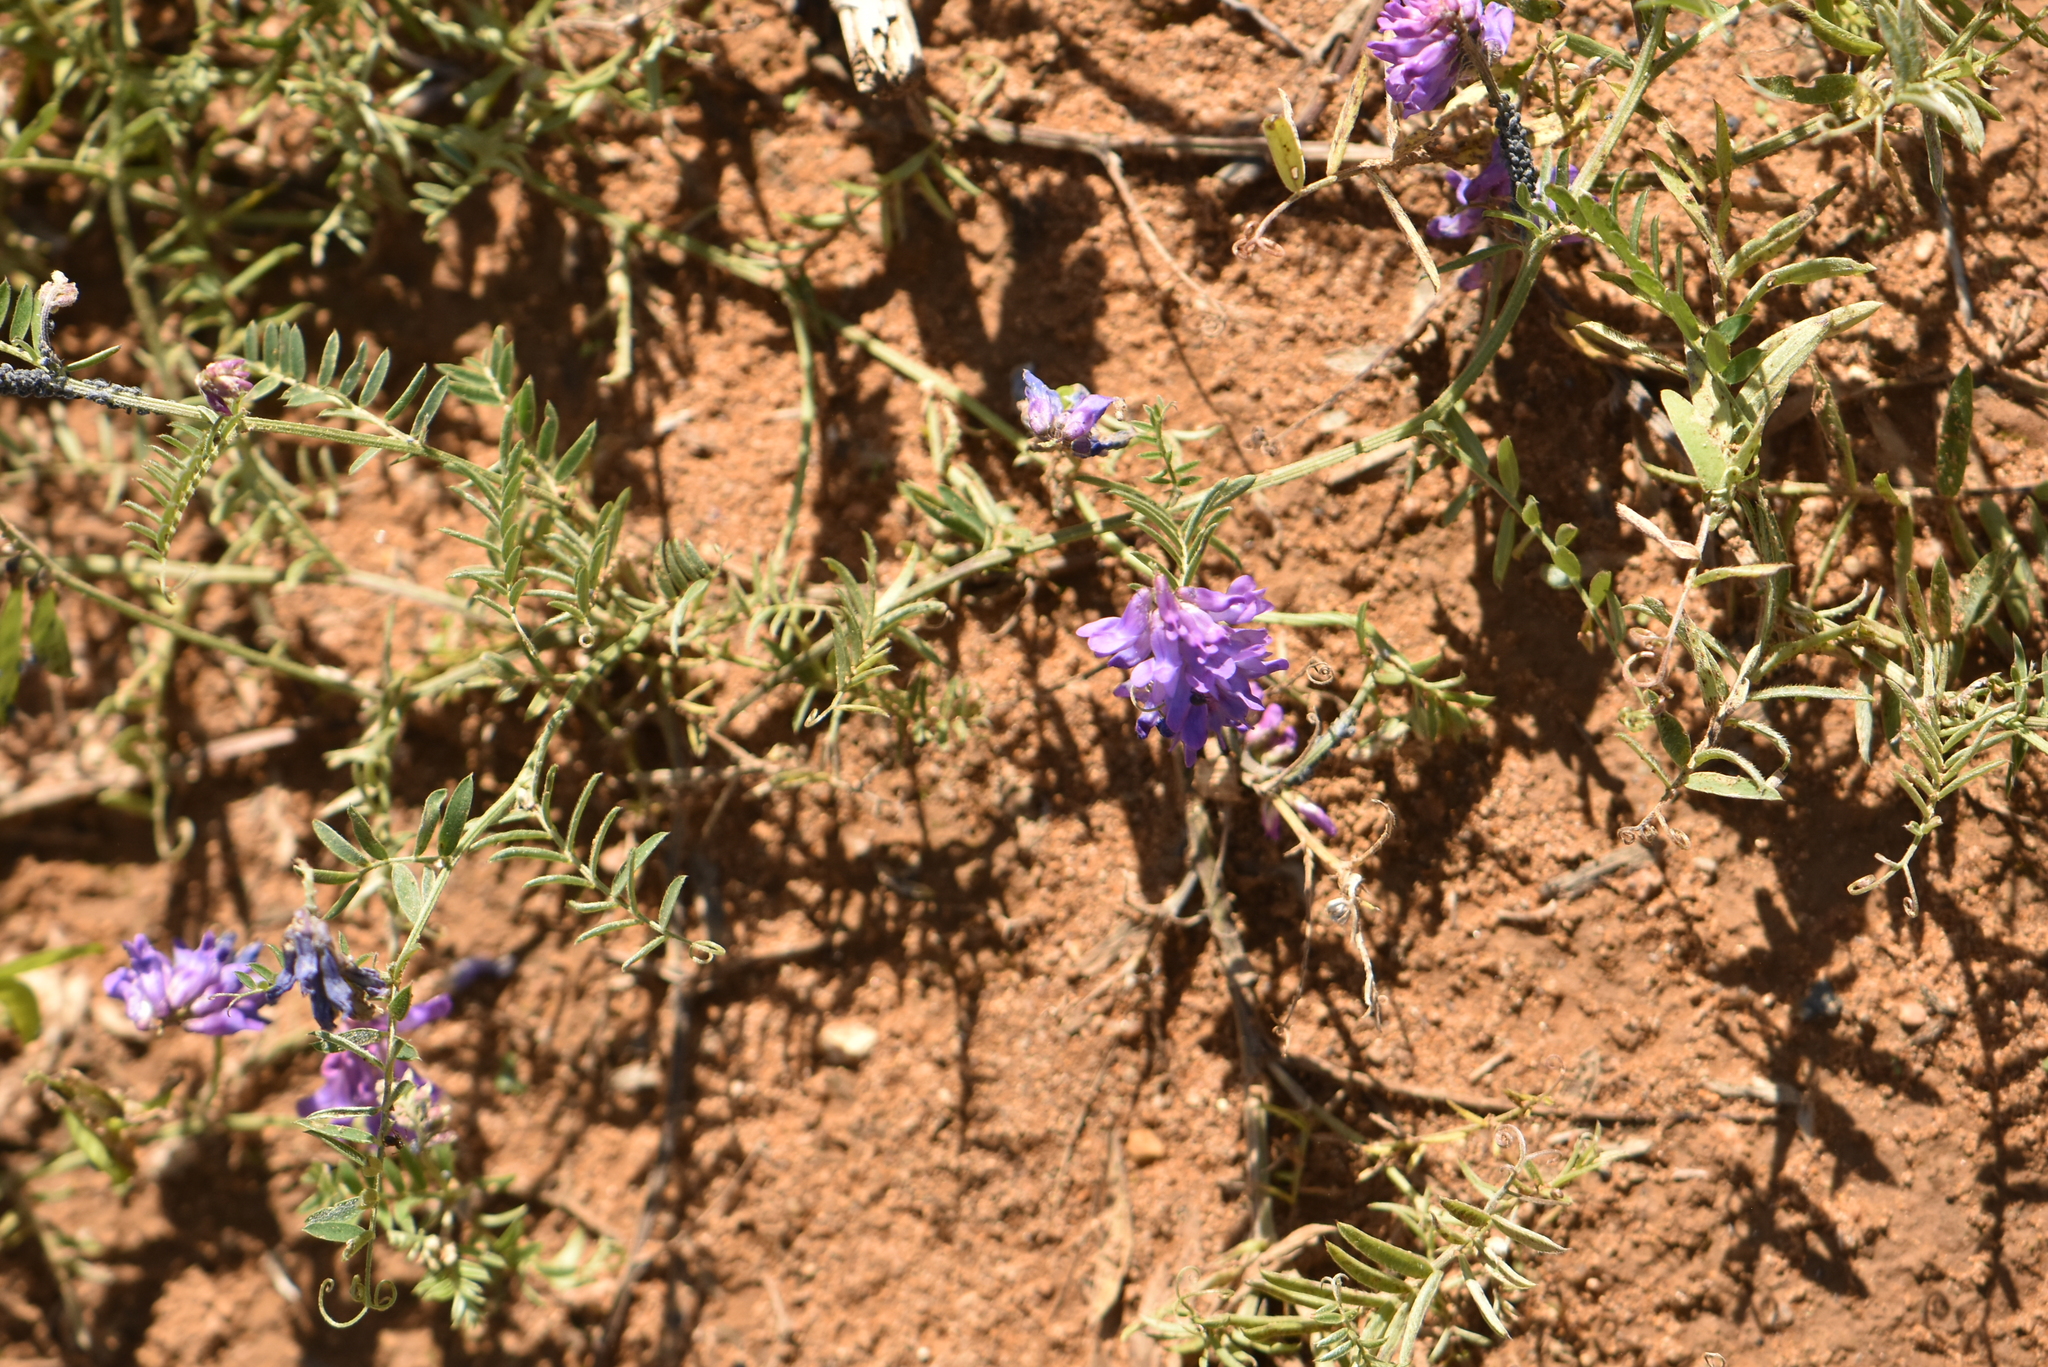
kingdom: Plantae
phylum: Tracheophyta
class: Magnoliopsida
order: Fabales
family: Fabaceae
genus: Vicia
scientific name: Vicia cracca
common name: Bird vetch
